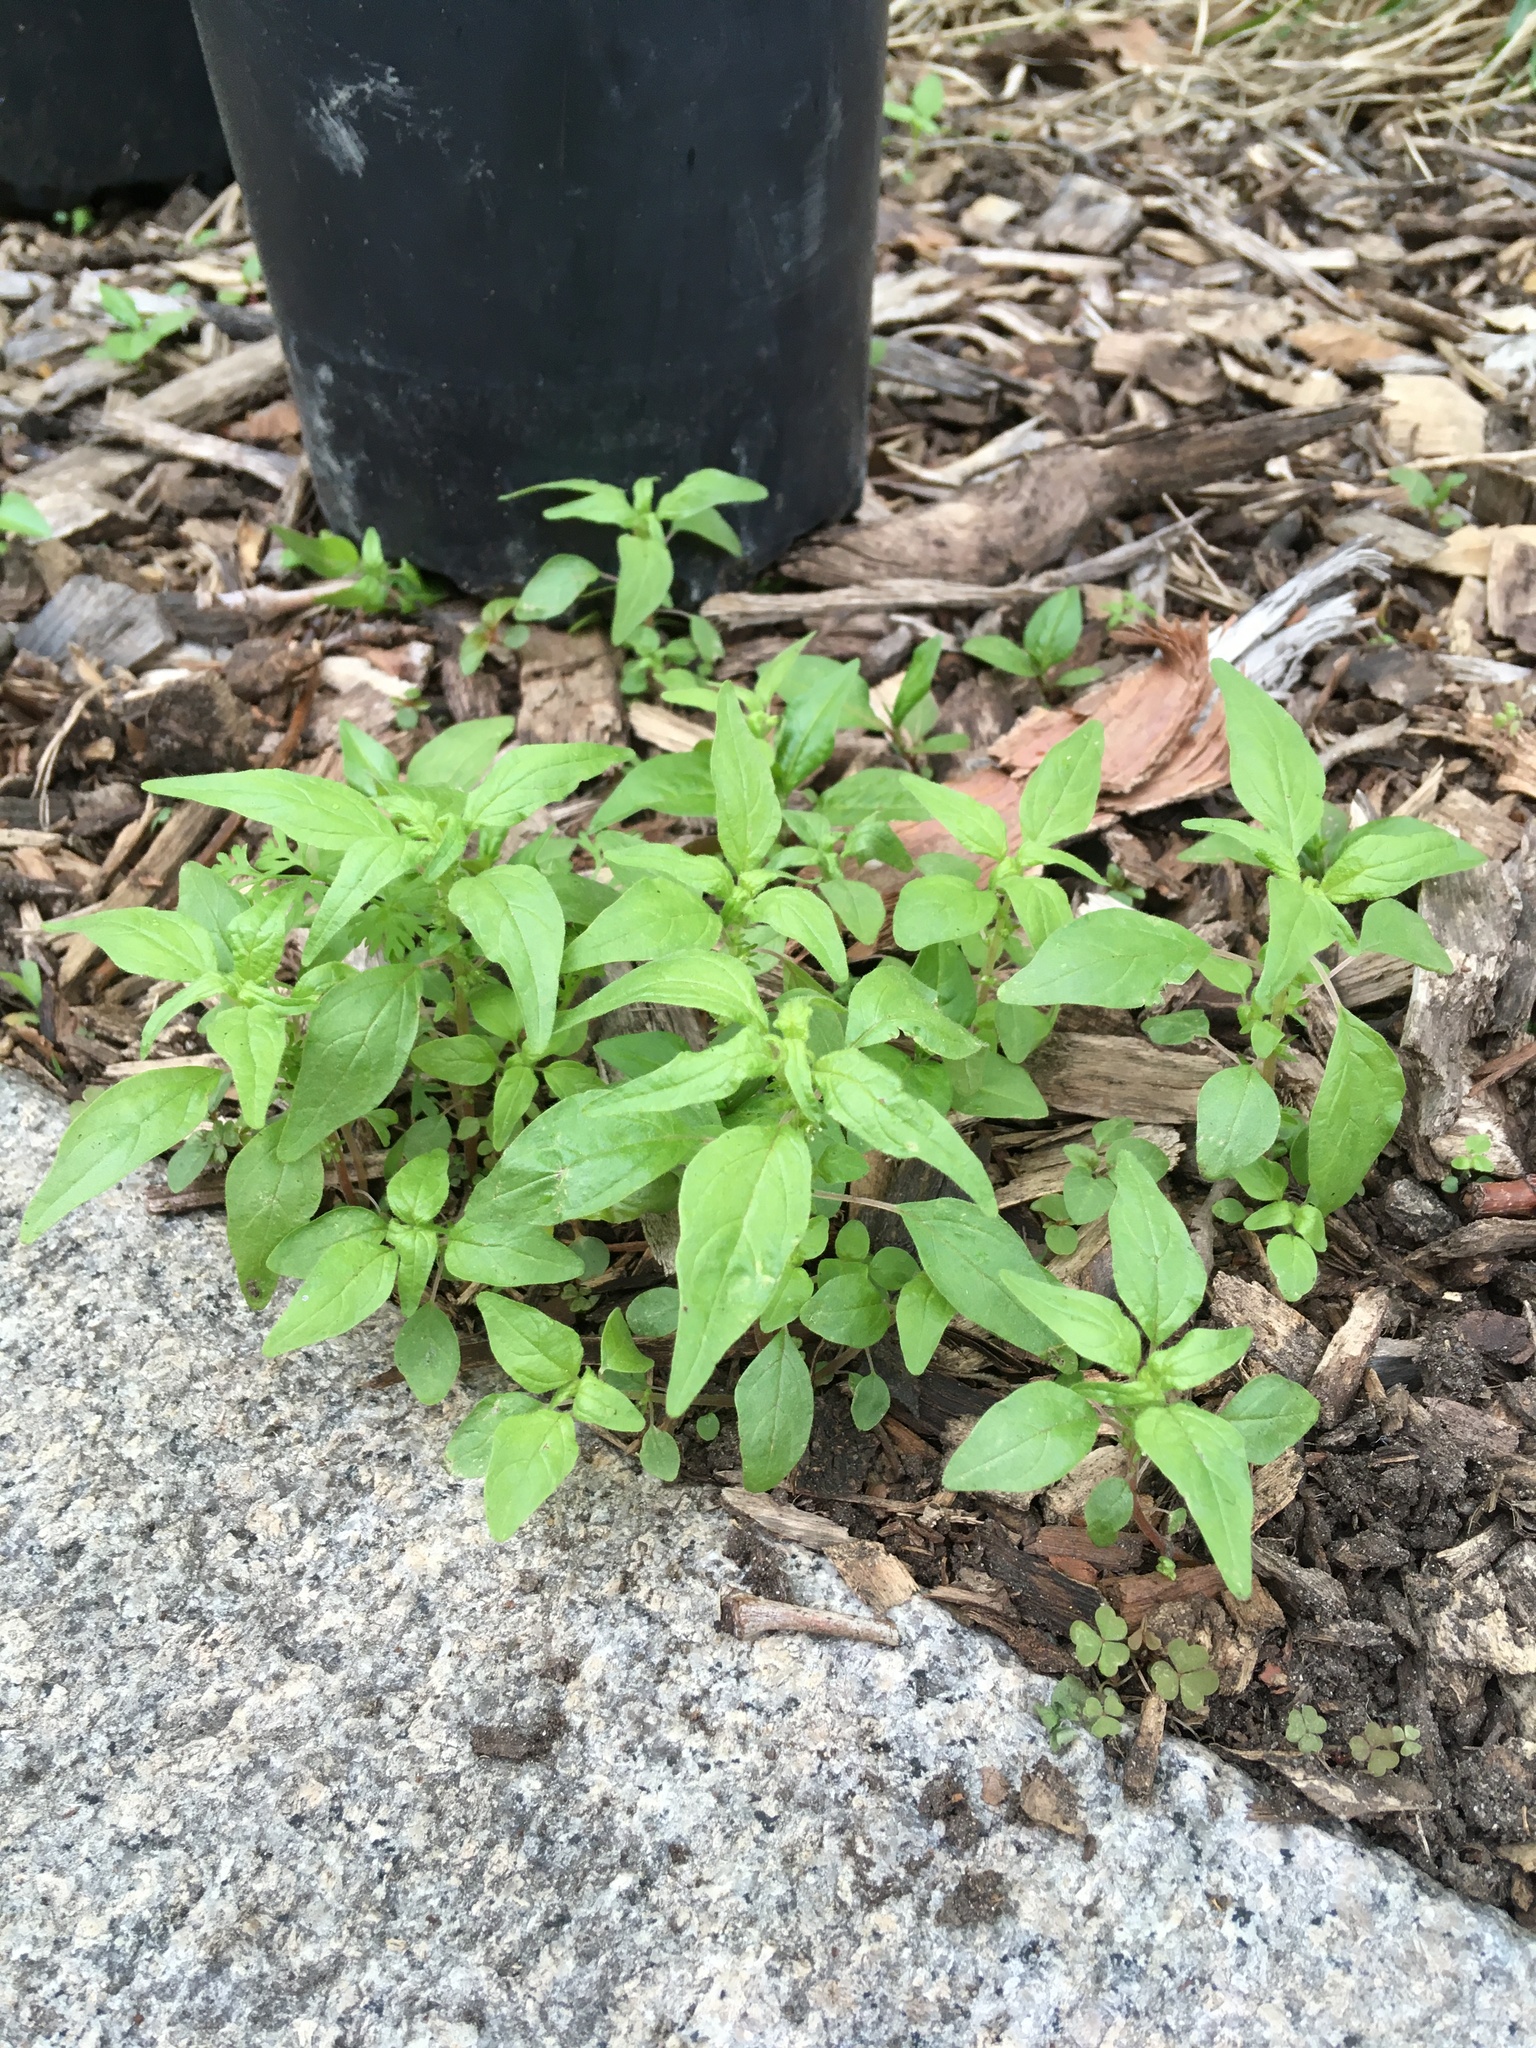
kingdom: Plantae
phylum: Tracheophyta
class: Magnoliopsida
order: Rosales
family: Urticaceae
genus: Parietaria
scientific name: Parietaria pensylvanica
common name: Pennsylvania pellitory
